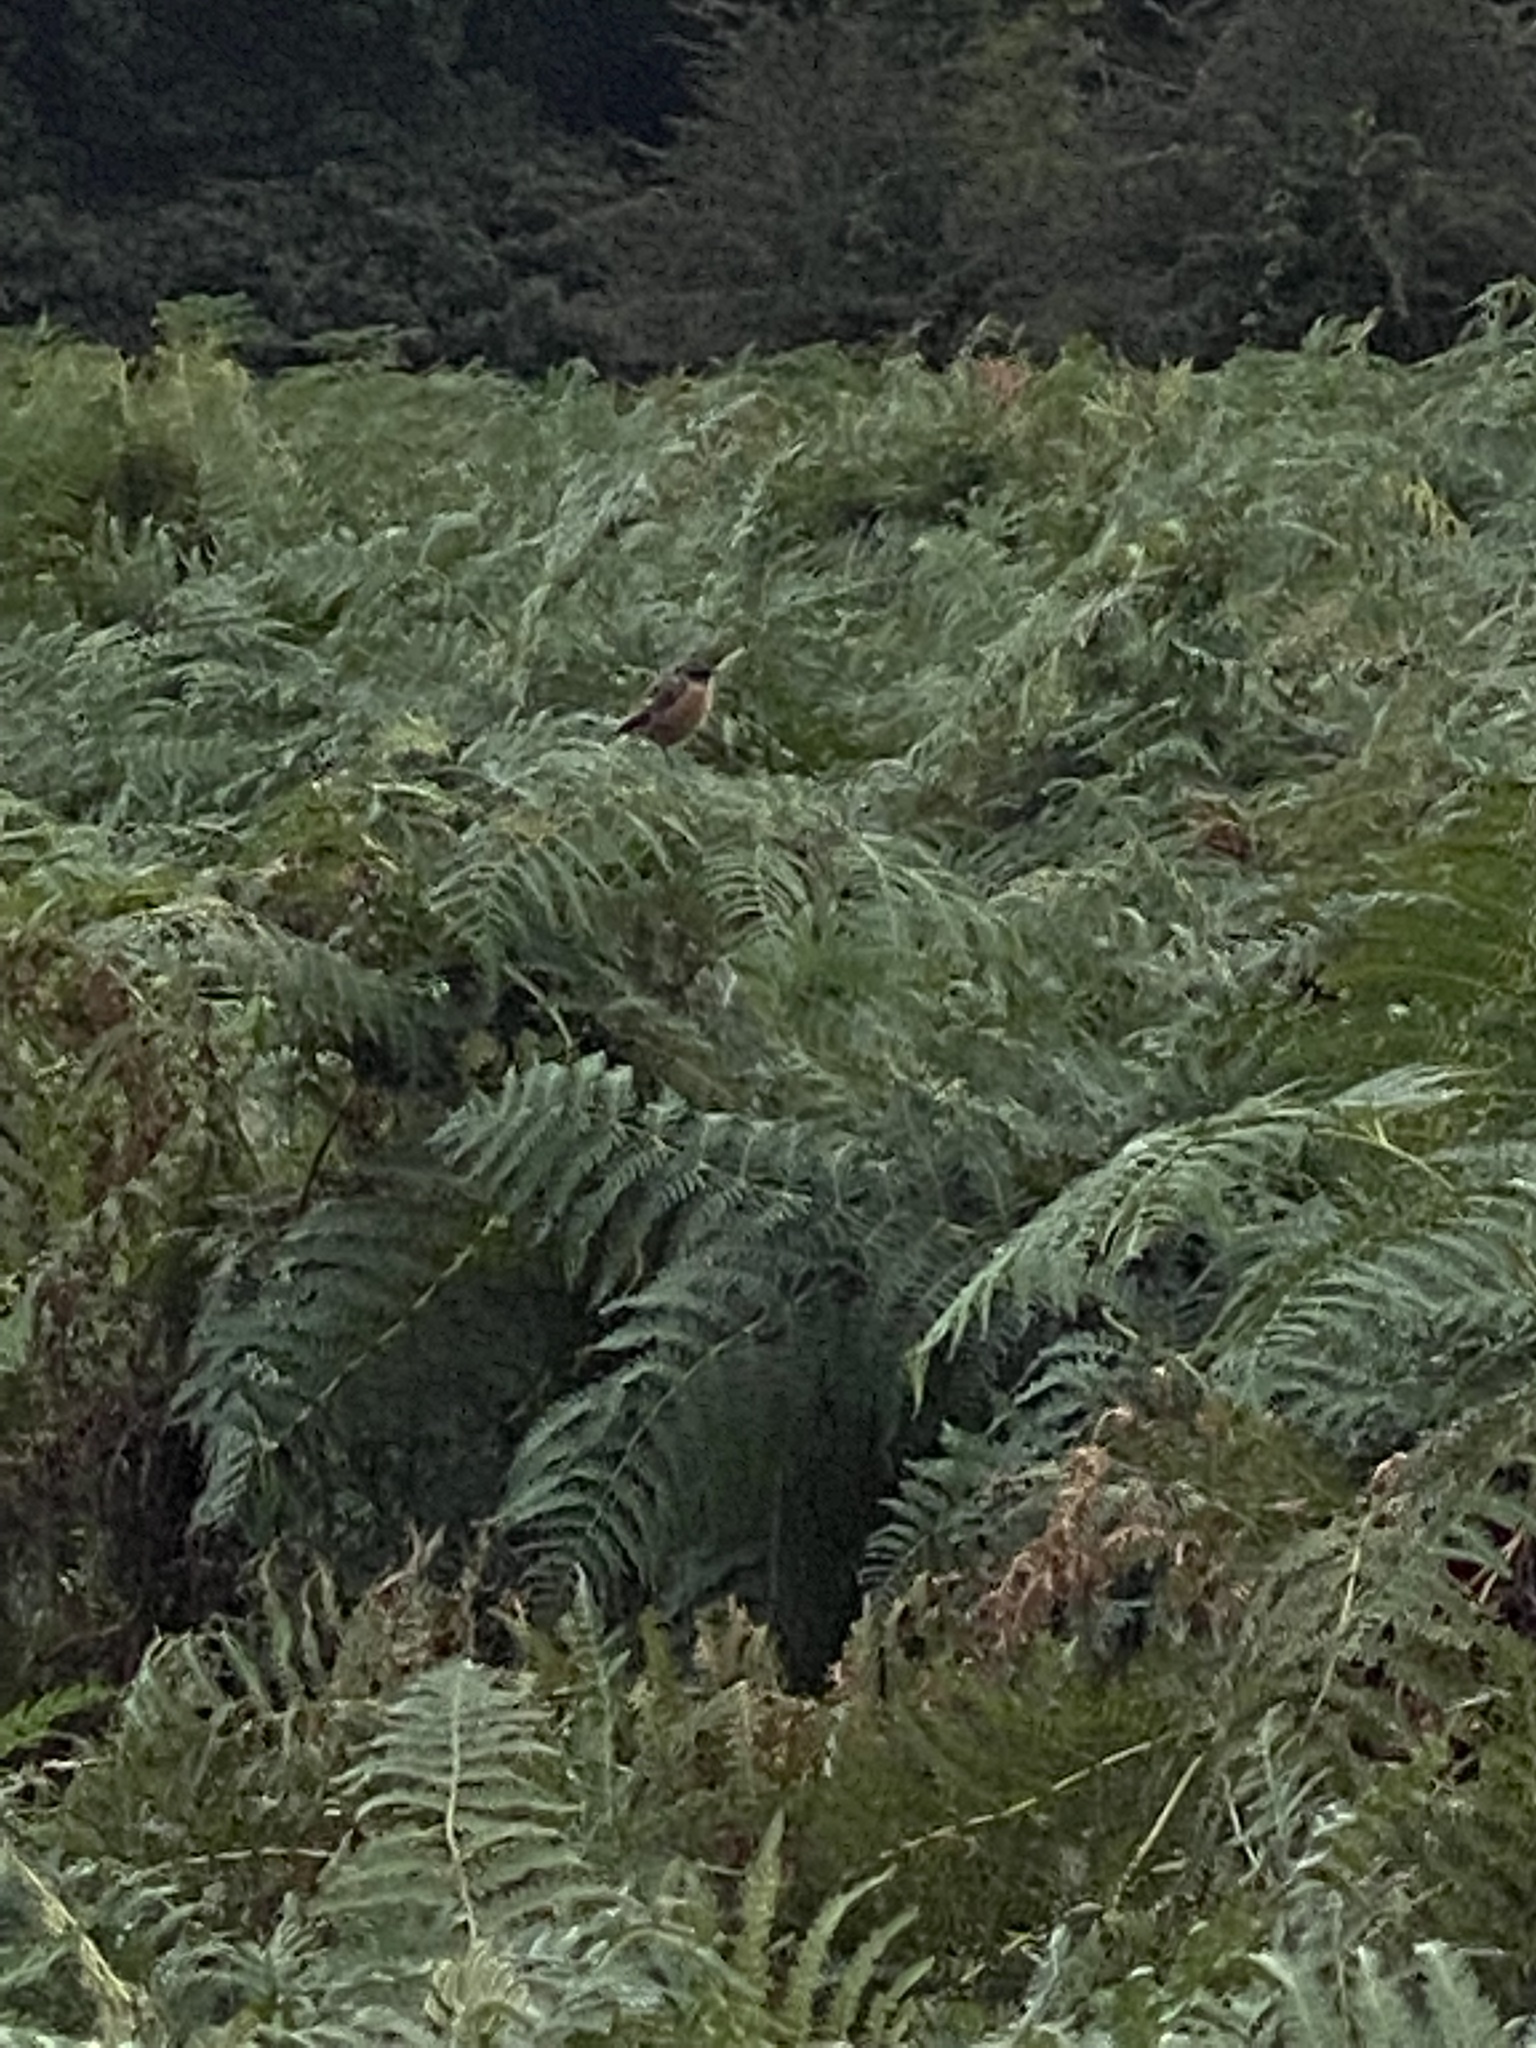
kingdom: Animalia
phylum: Chordata
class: Aves
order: Passeriformes
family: Muscicapidae
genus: Saxicola
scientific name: Saxicola rubicola
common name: European stonechat
